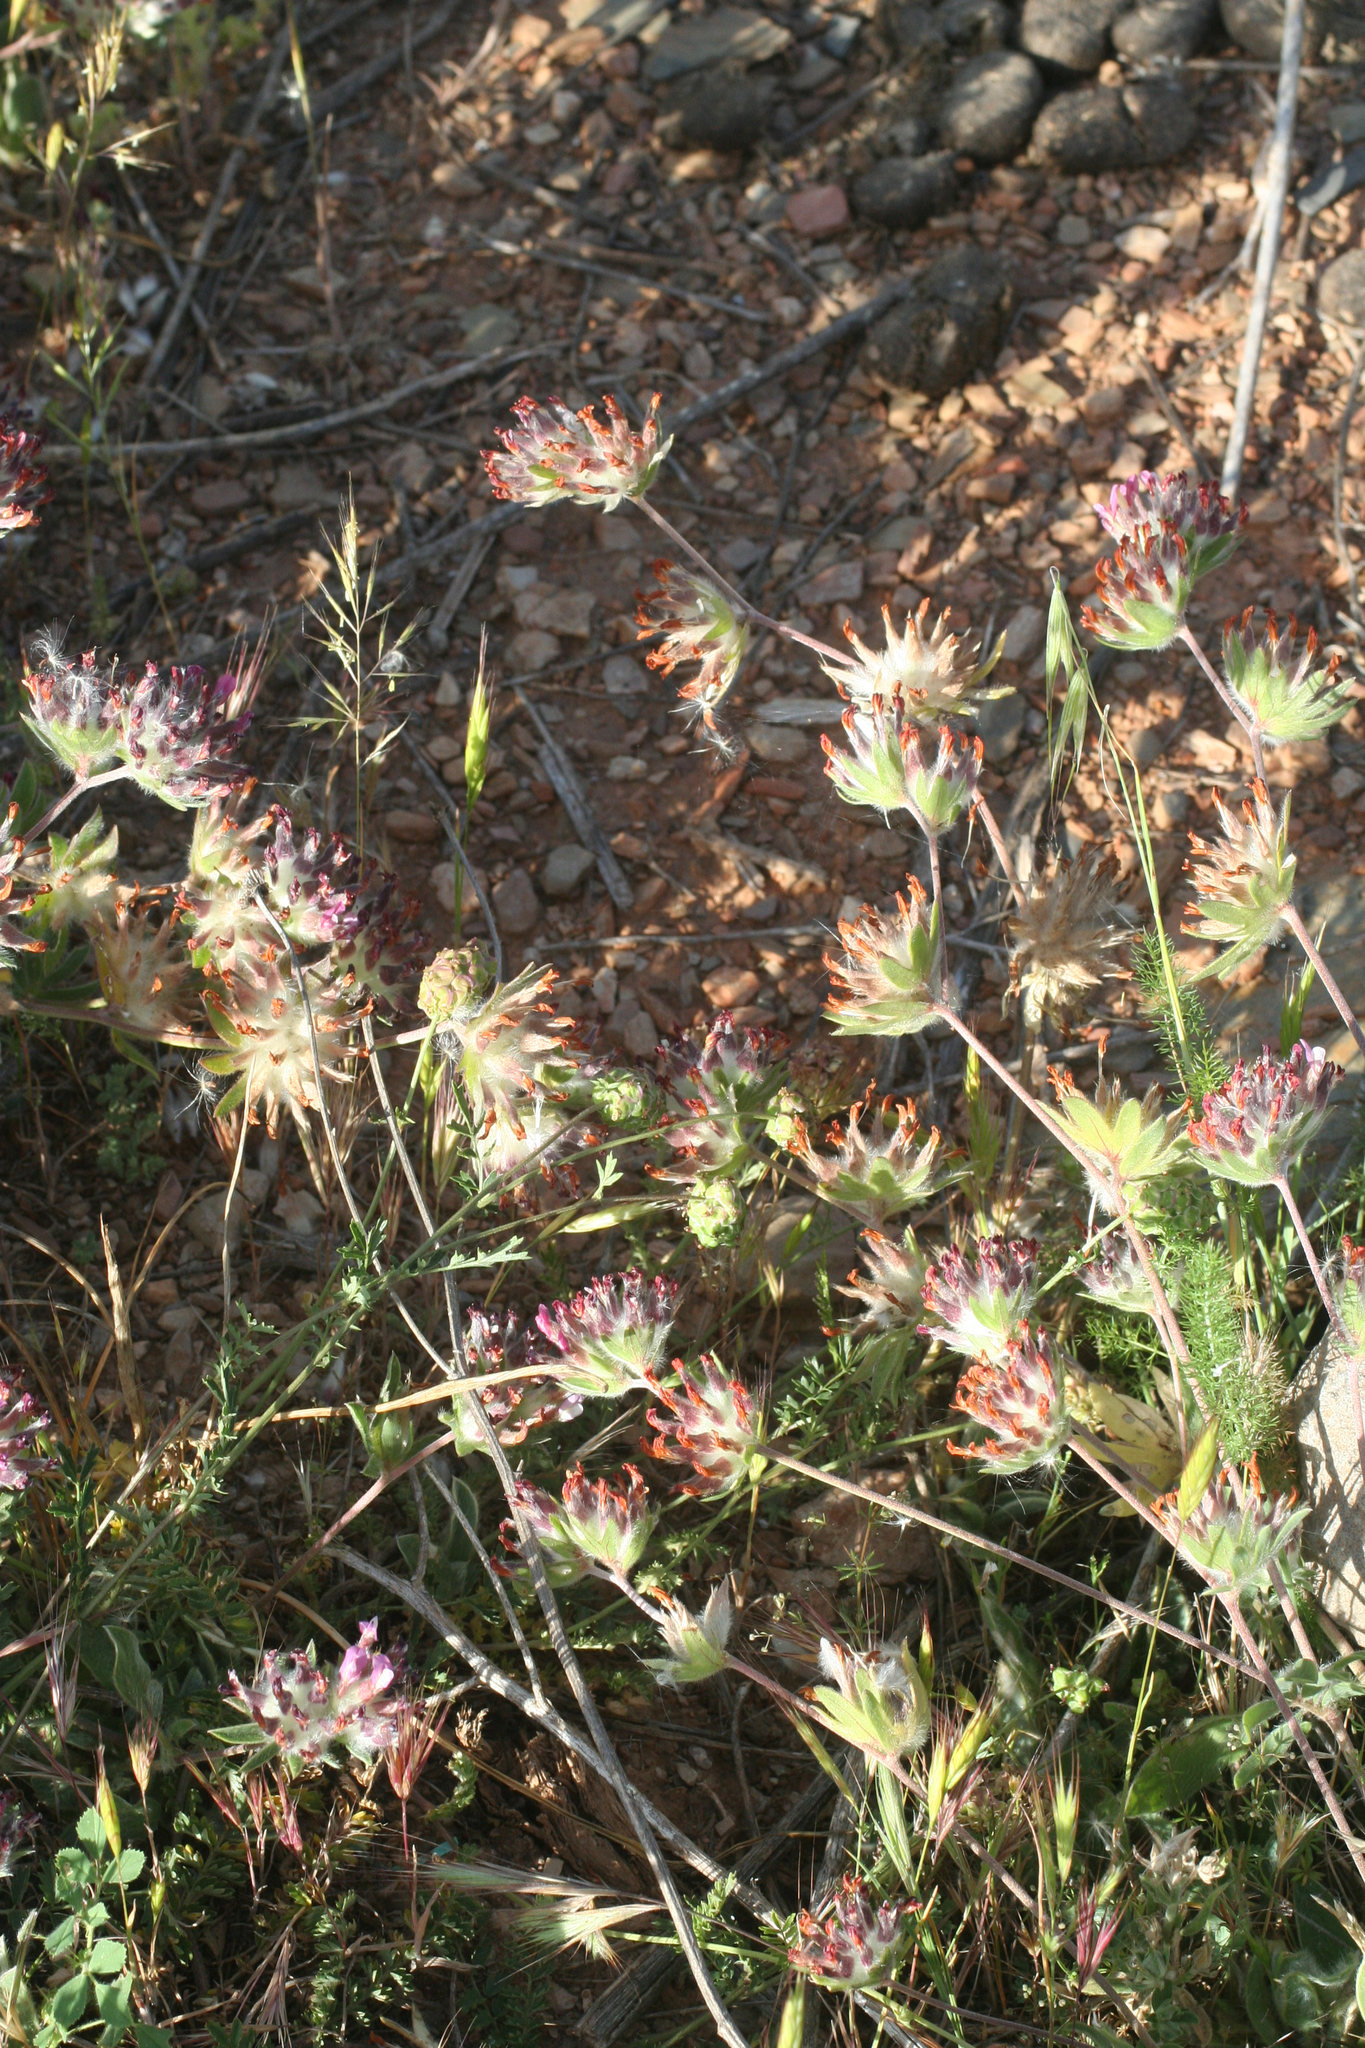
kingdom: Plantae
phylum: Tracheophyta
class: Magnoliopsida
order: Fabales
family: Fabaceae
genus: Anthyllis
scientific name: Anthyllis vulneraria
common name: Kidney vetch
